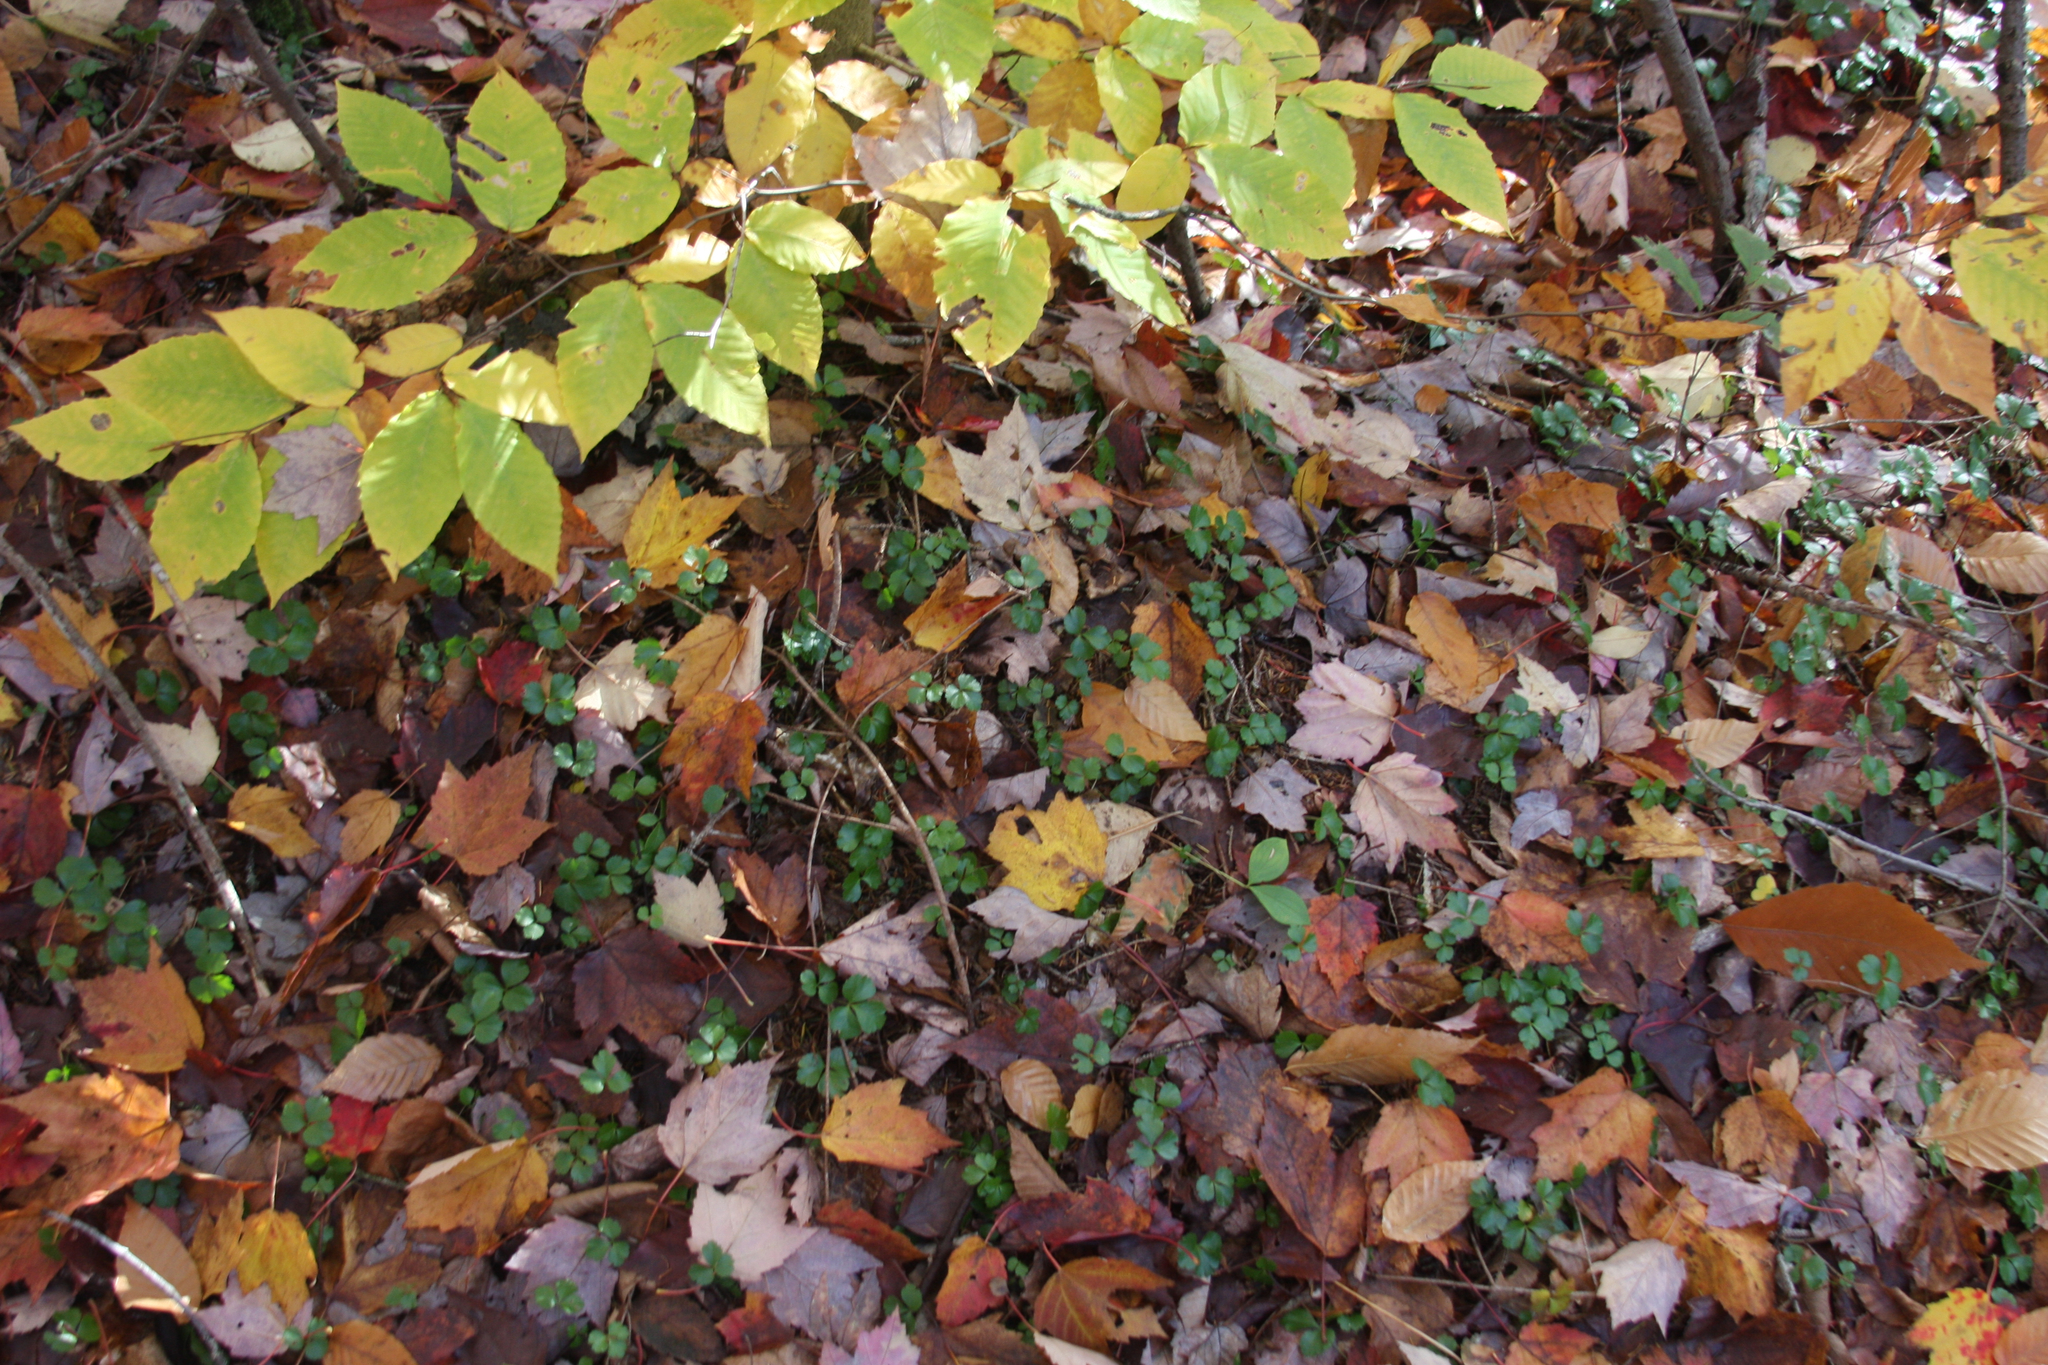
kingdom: Plantae
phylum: Tracheophyta
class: Magnoliopsida
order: Fagales
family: Fagaceae
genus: Fagus
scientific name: Fagus grandifolia
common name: American beech
